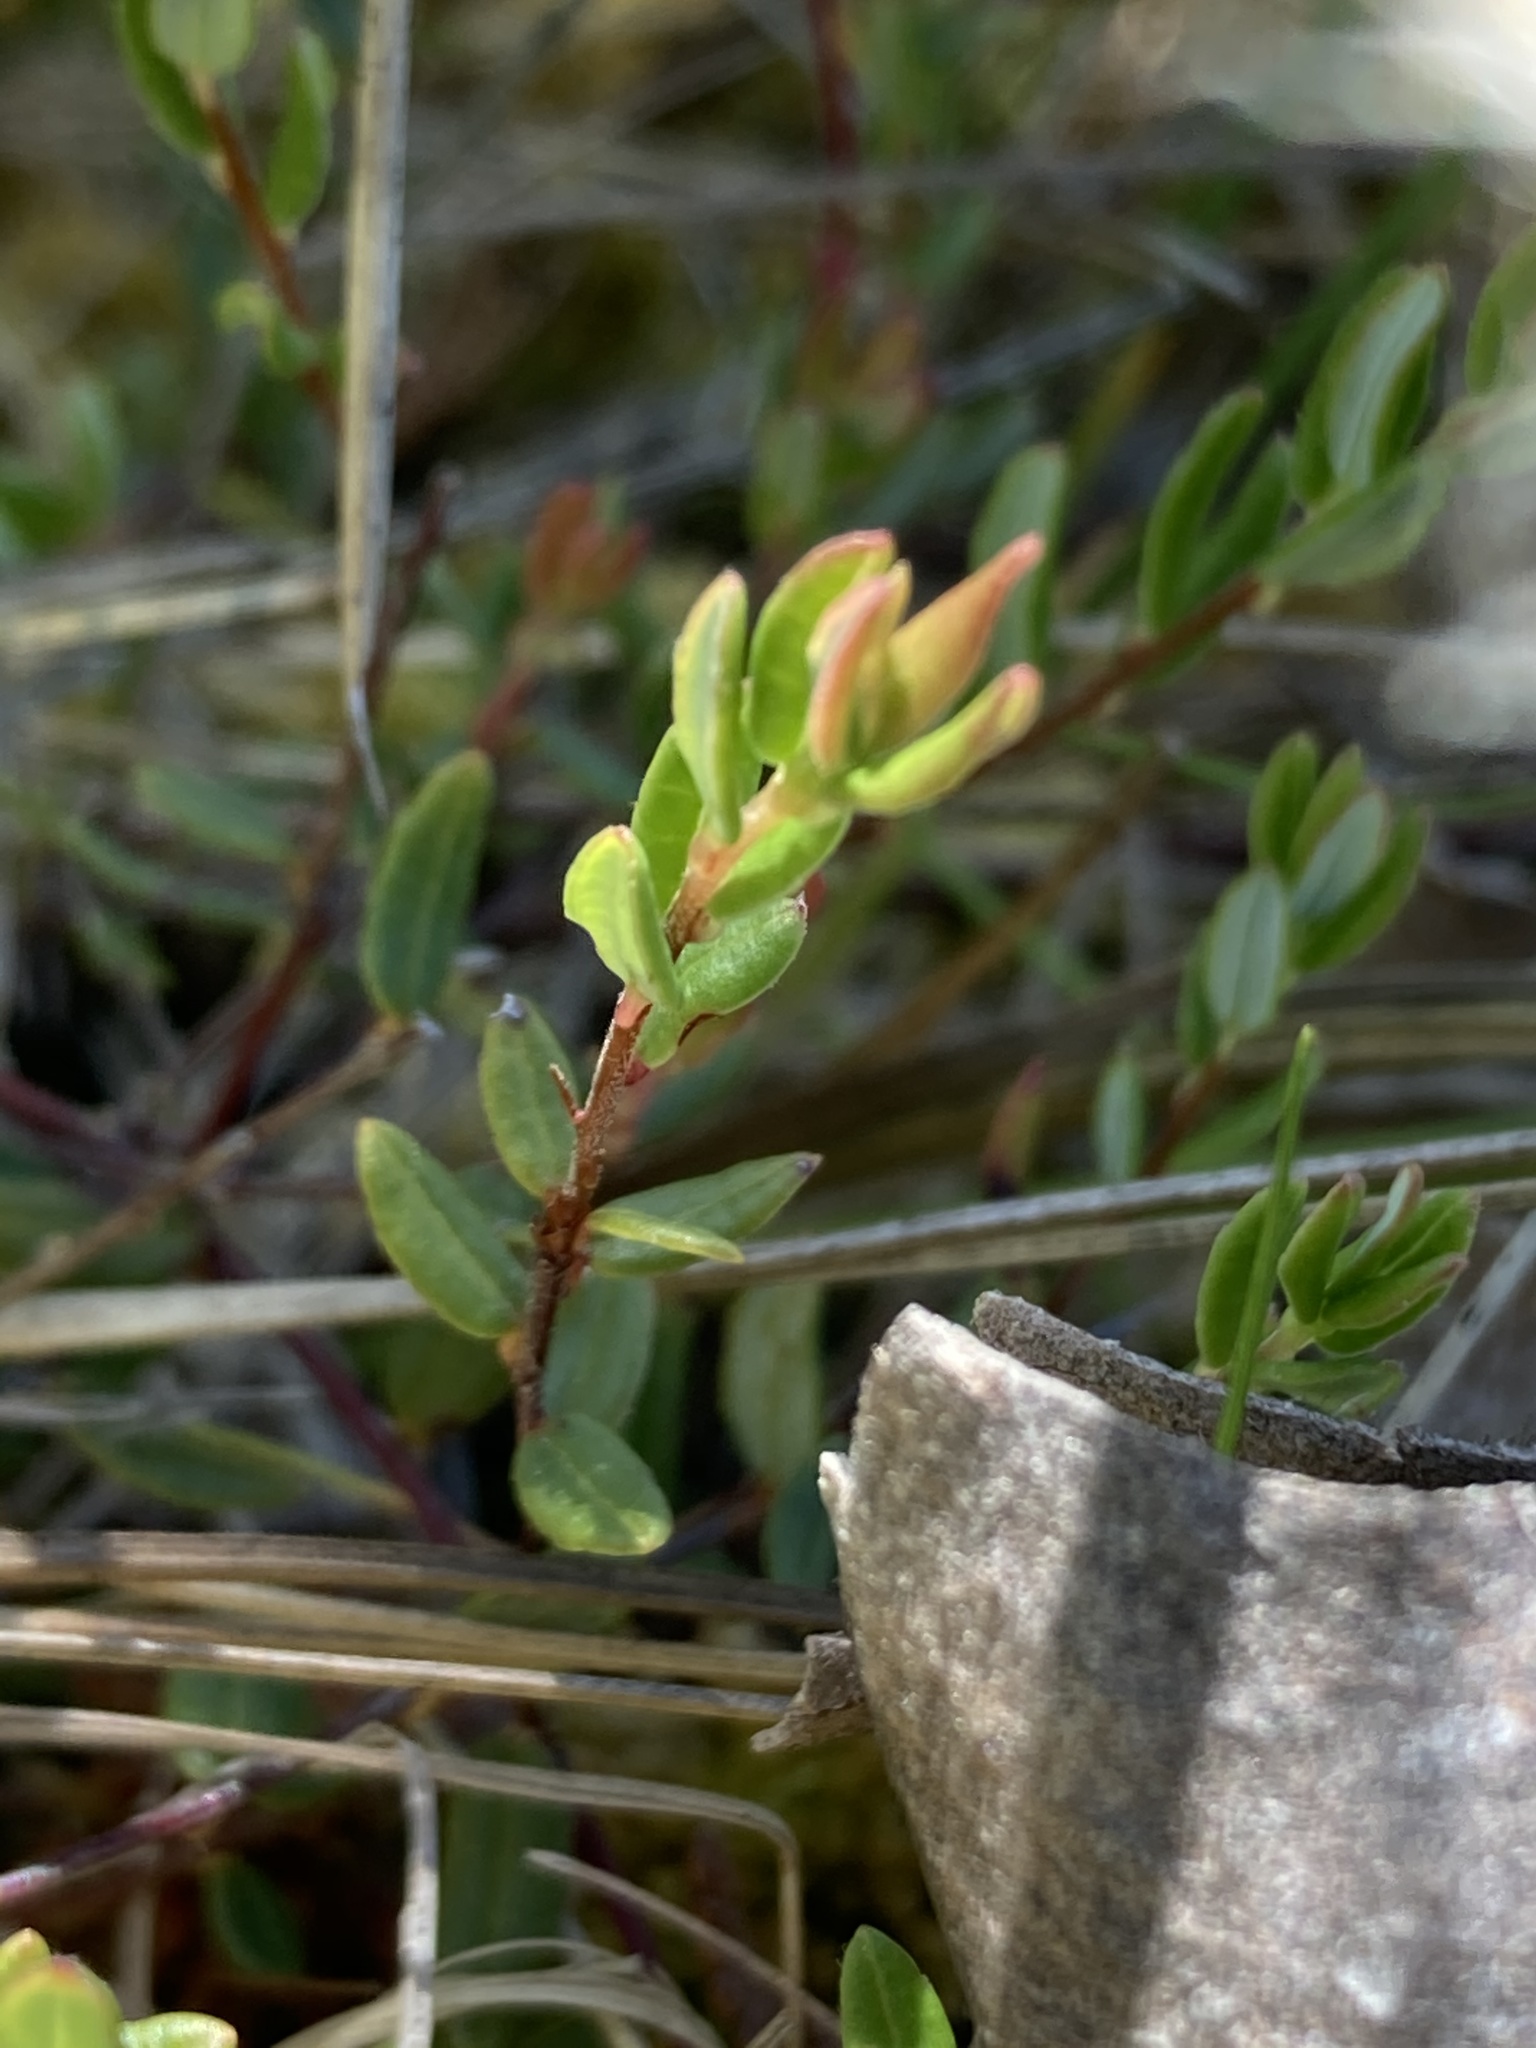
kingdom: Plantae
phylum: Tracheophyta
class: Magnoliopsida
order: Ericales
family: Ericaceae
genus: Vaccinium
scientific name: Vaccinium oxycoccos
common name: Cranberry
